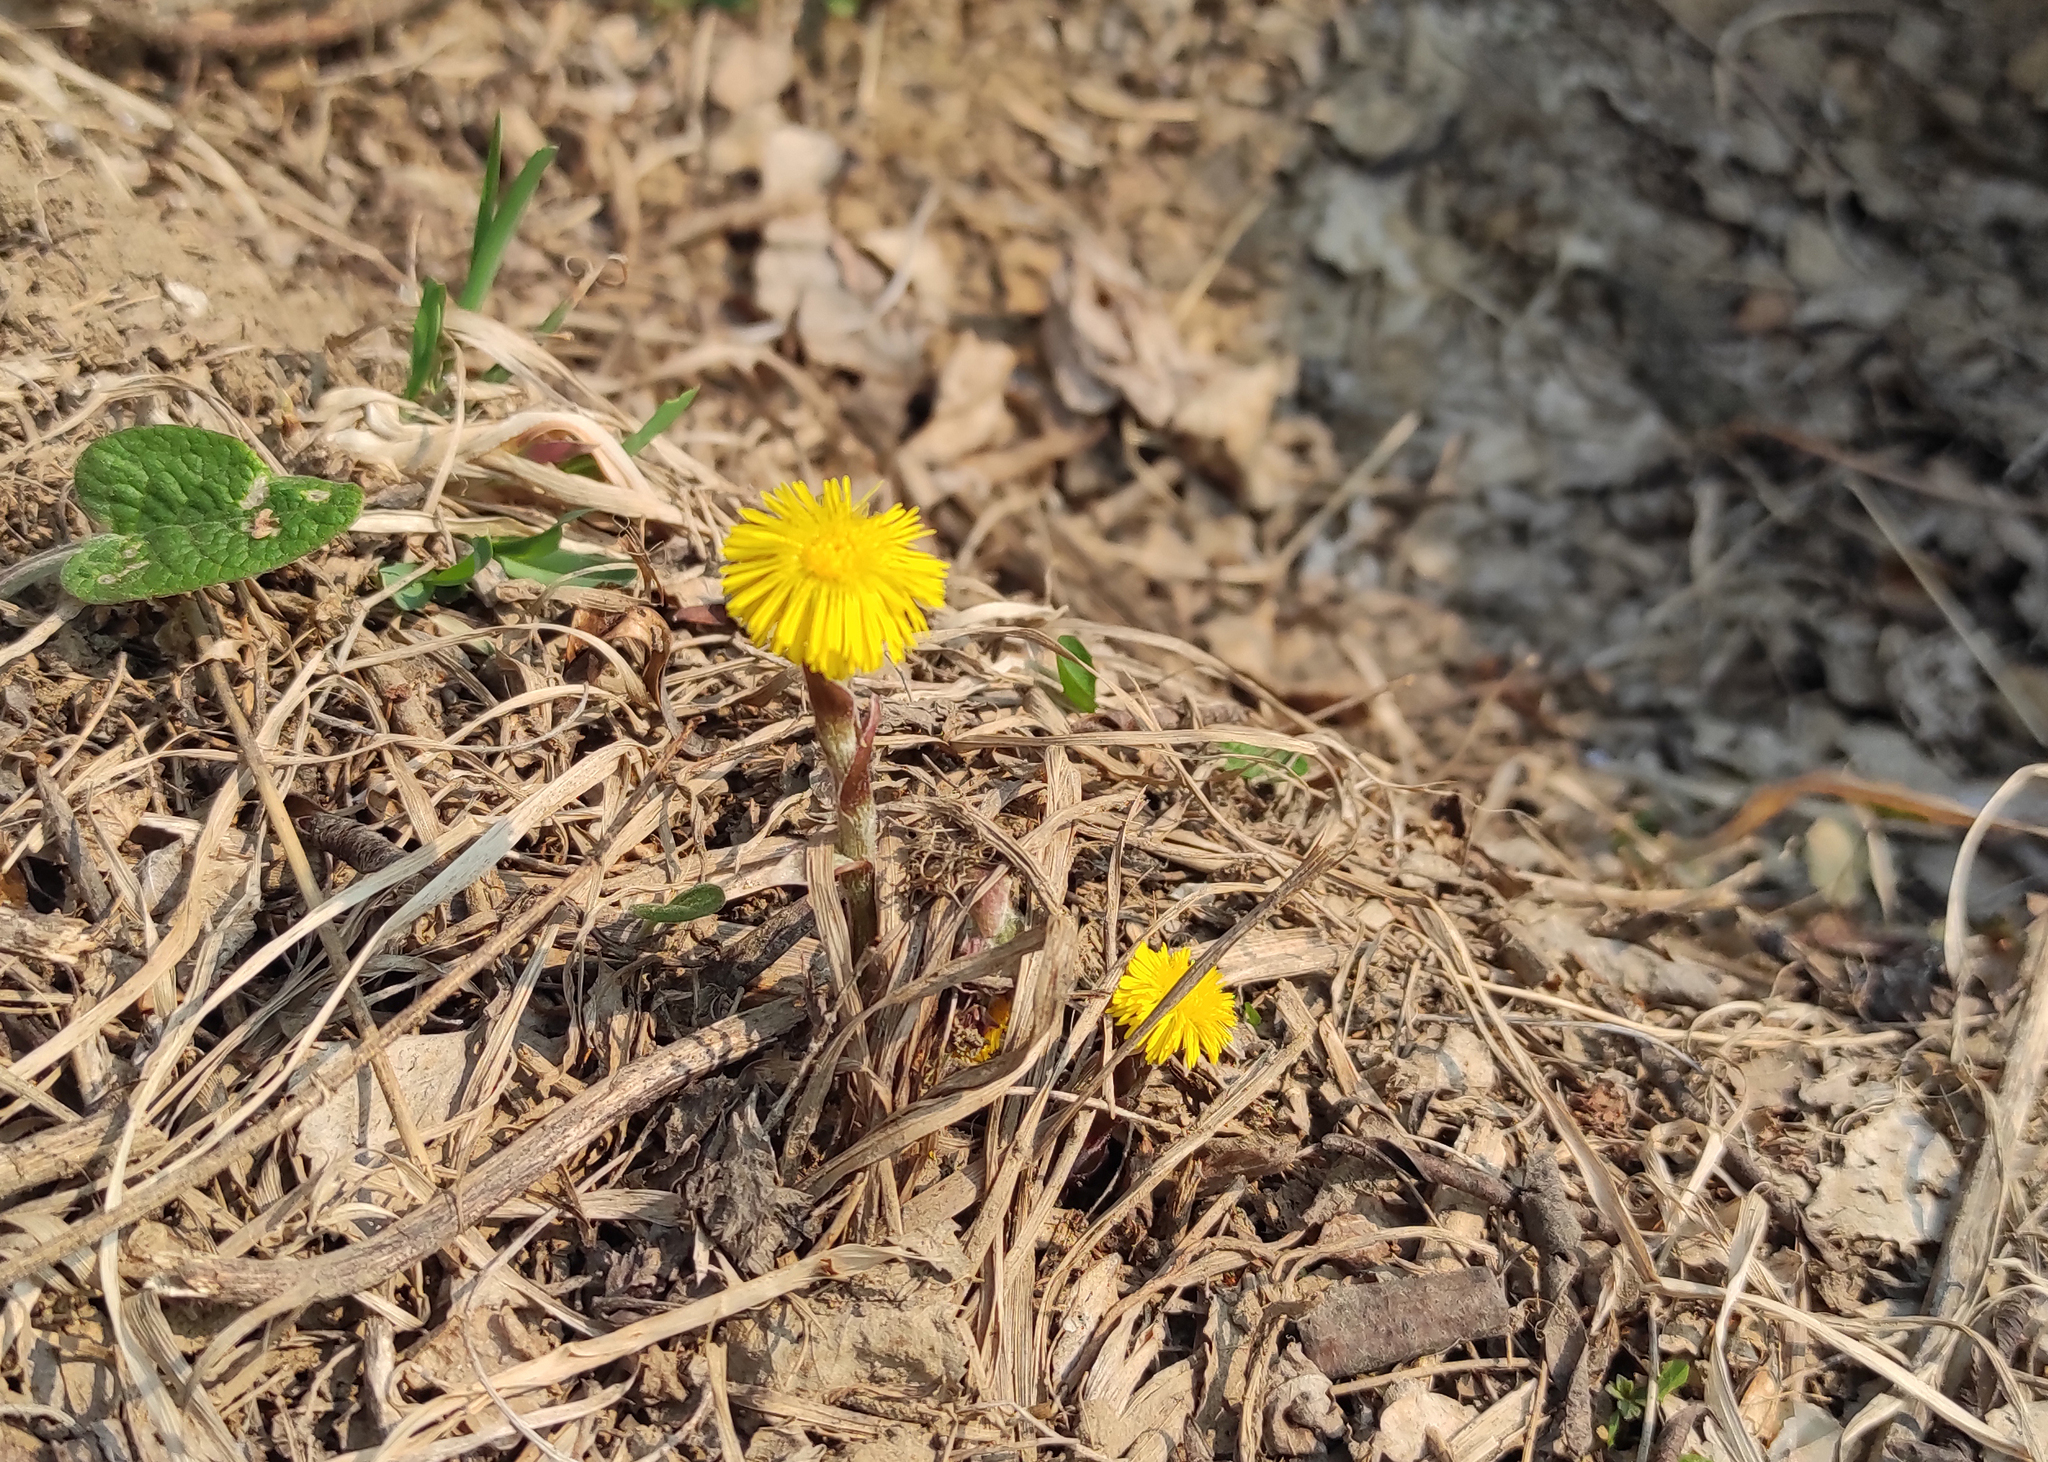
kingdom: Plantae
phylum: Tracheophyta
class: Magnoliopsida
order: Asterales
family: Asteraceae
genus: Tussilago
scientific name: Tussilago farfara
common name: Coltsfoot
